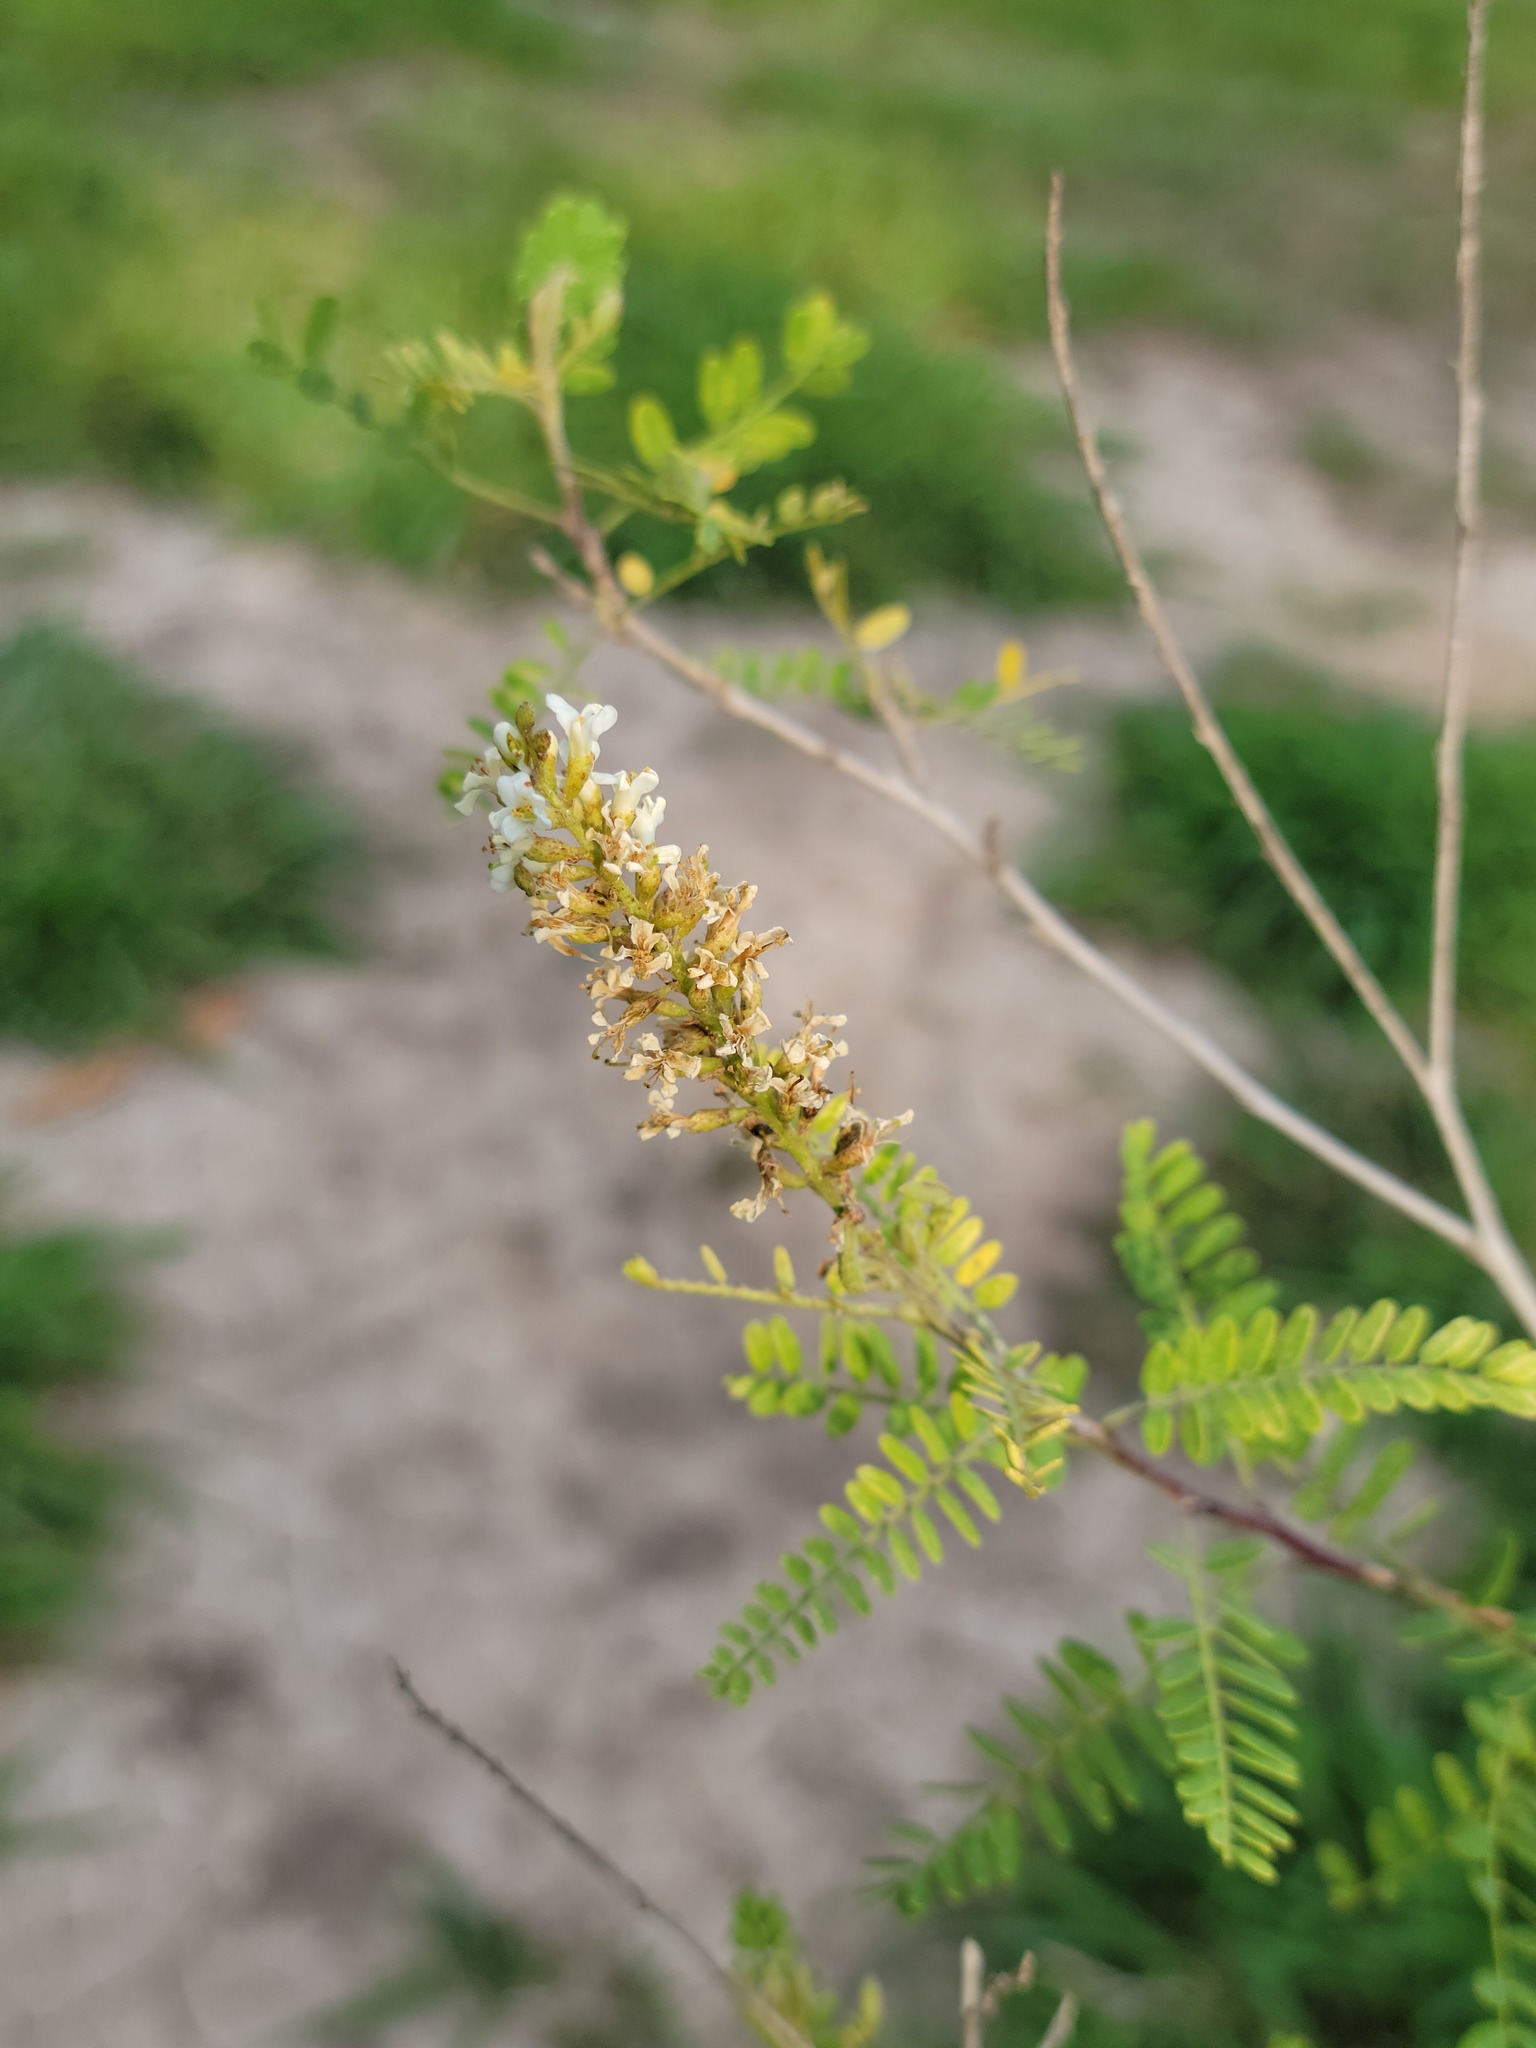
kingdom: Plantae
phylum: Tracheophyta
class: Magnoliopsida
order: Fabales
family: Fabaceae
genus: Eysenhardtia
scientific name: Eysenhardtia texana
